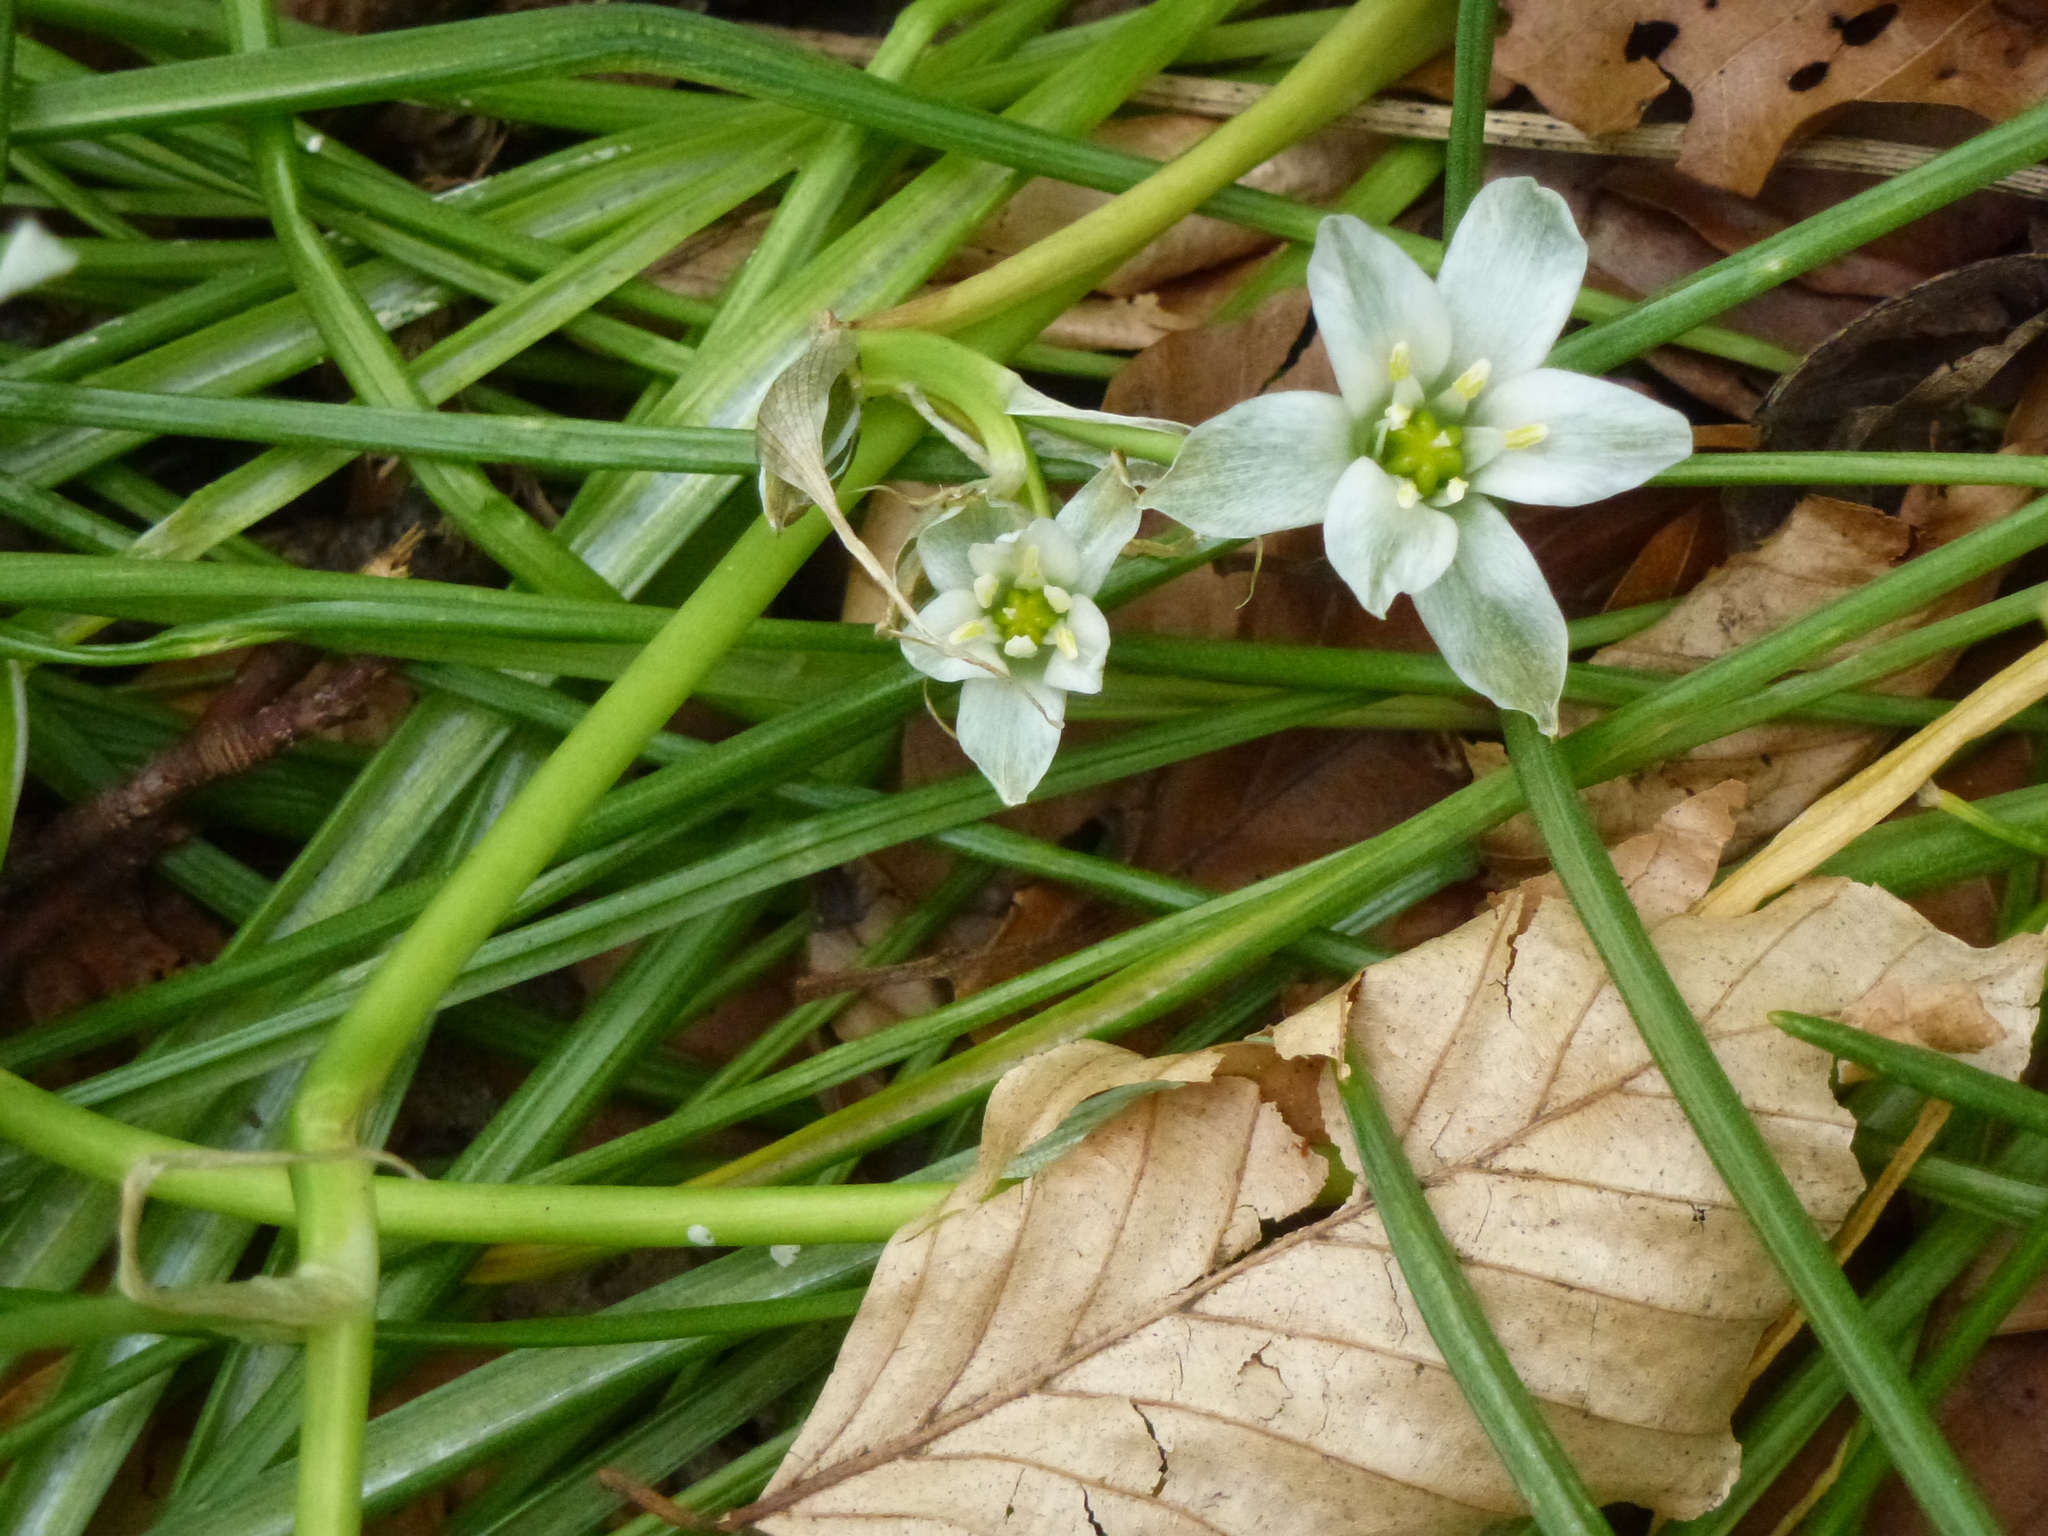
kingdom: Plantae
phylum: Tracheophyta
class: Liliopsida
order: Asparagales
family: Asparagaceae
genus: Ornithogalum
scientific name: Ornithogalum umbellatum
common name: Garden star-of-bethlehem
